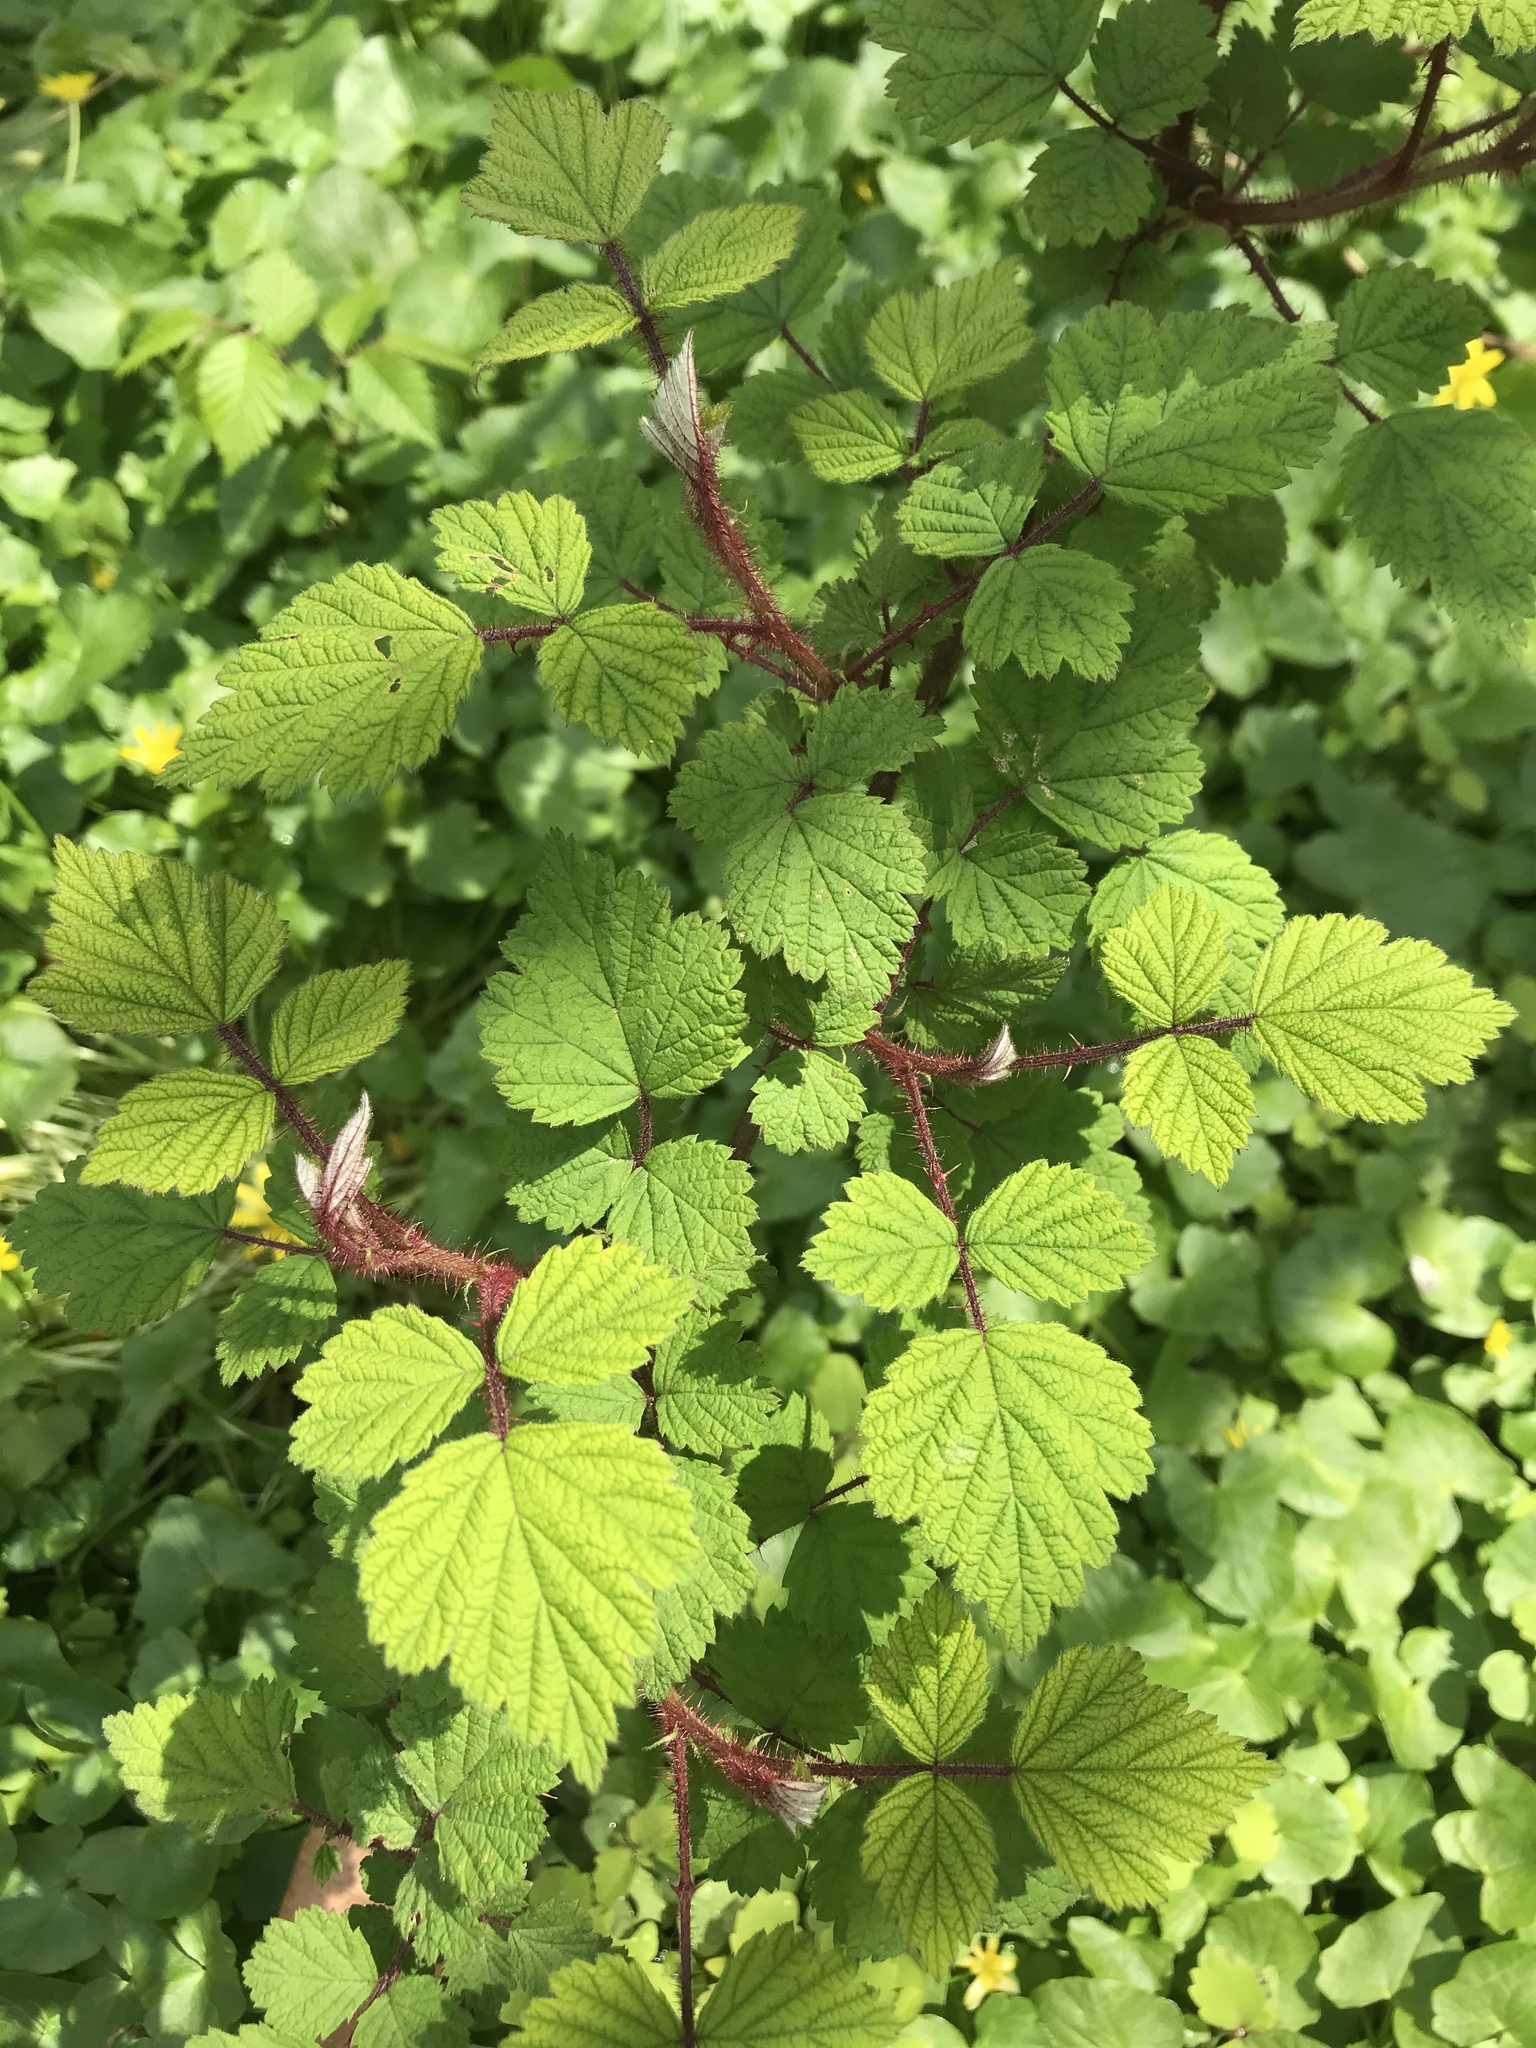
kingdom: Plantae
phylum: Tracheophyta
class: Magnoliopsida
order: Rosales
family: Rosaceae
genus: Rubus
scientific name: Rubus phoenicolasius
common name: Japanese wineberry
